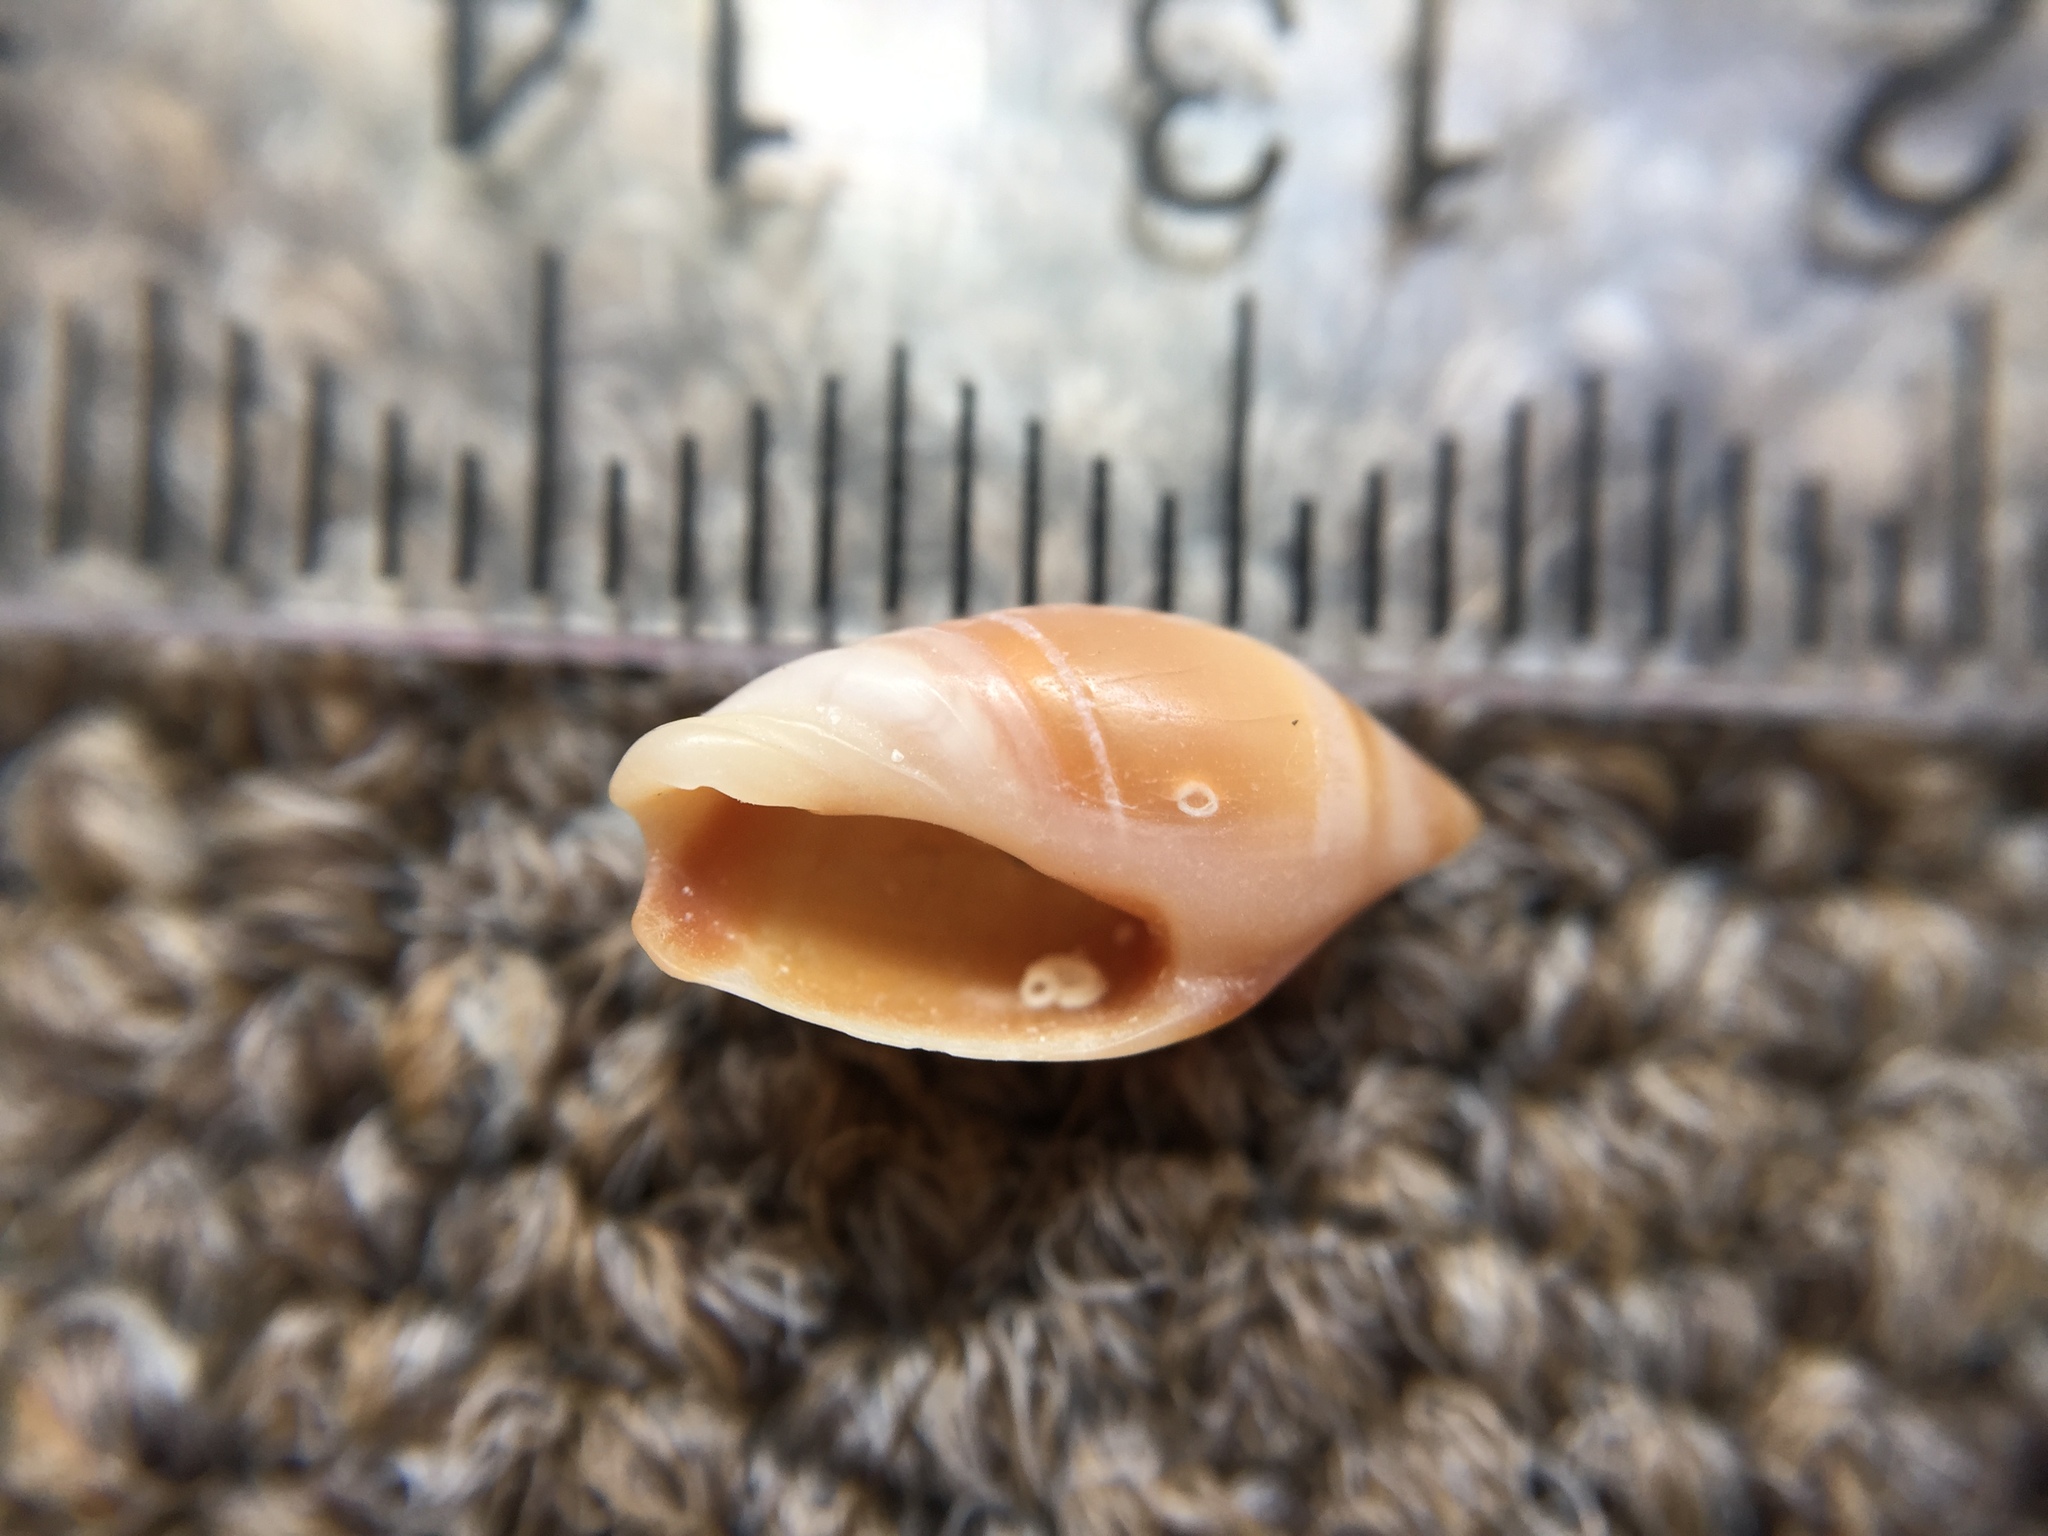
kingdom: Animalia
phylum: Mollusca
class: Gastropoda
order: Neogastropoda
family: Ancillariidae
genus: Amalda
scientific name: Amalda australis
